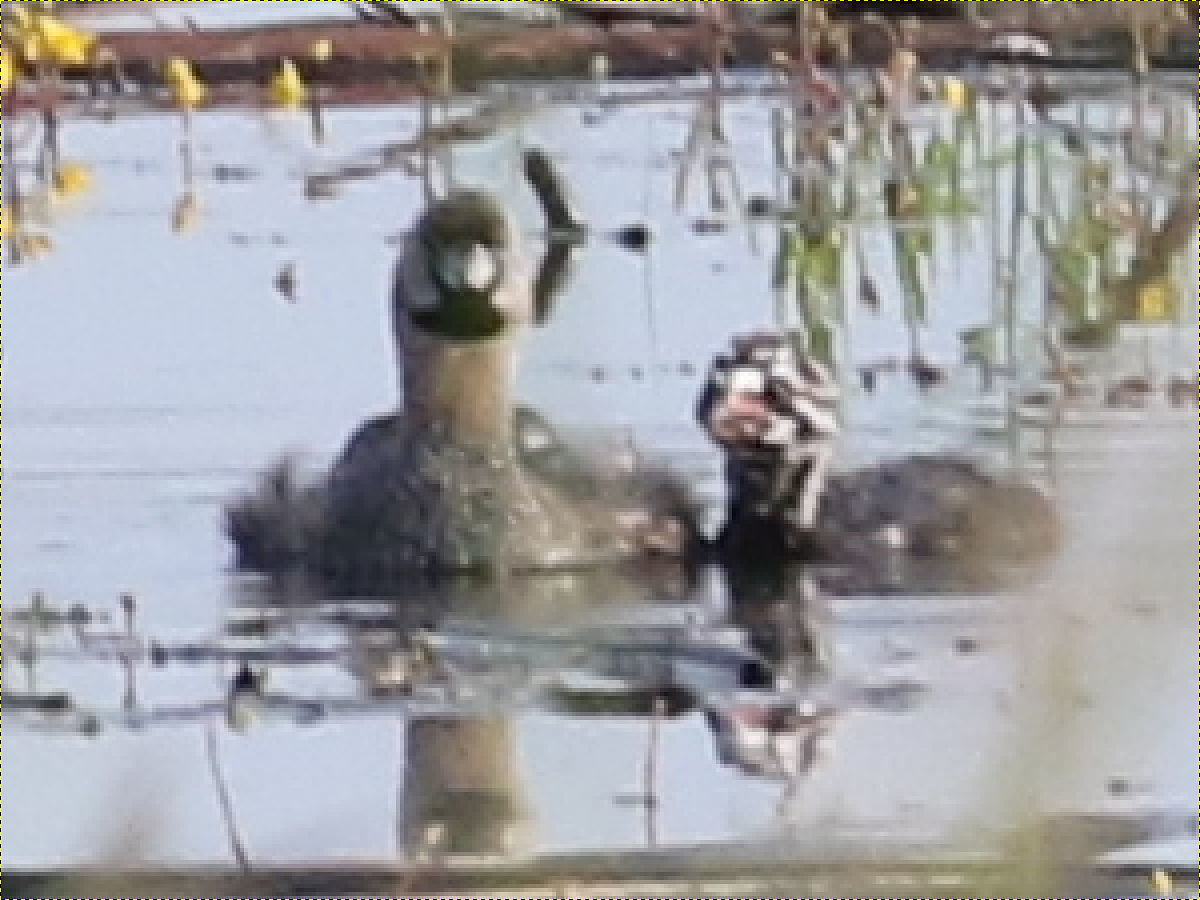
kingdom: Animalia
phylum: Chordata
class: Aves
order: Podicipediformes
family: Podicipedidae
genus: Podilymbus
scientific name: Podilymbus podiceps
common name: Pied-billed grebe
